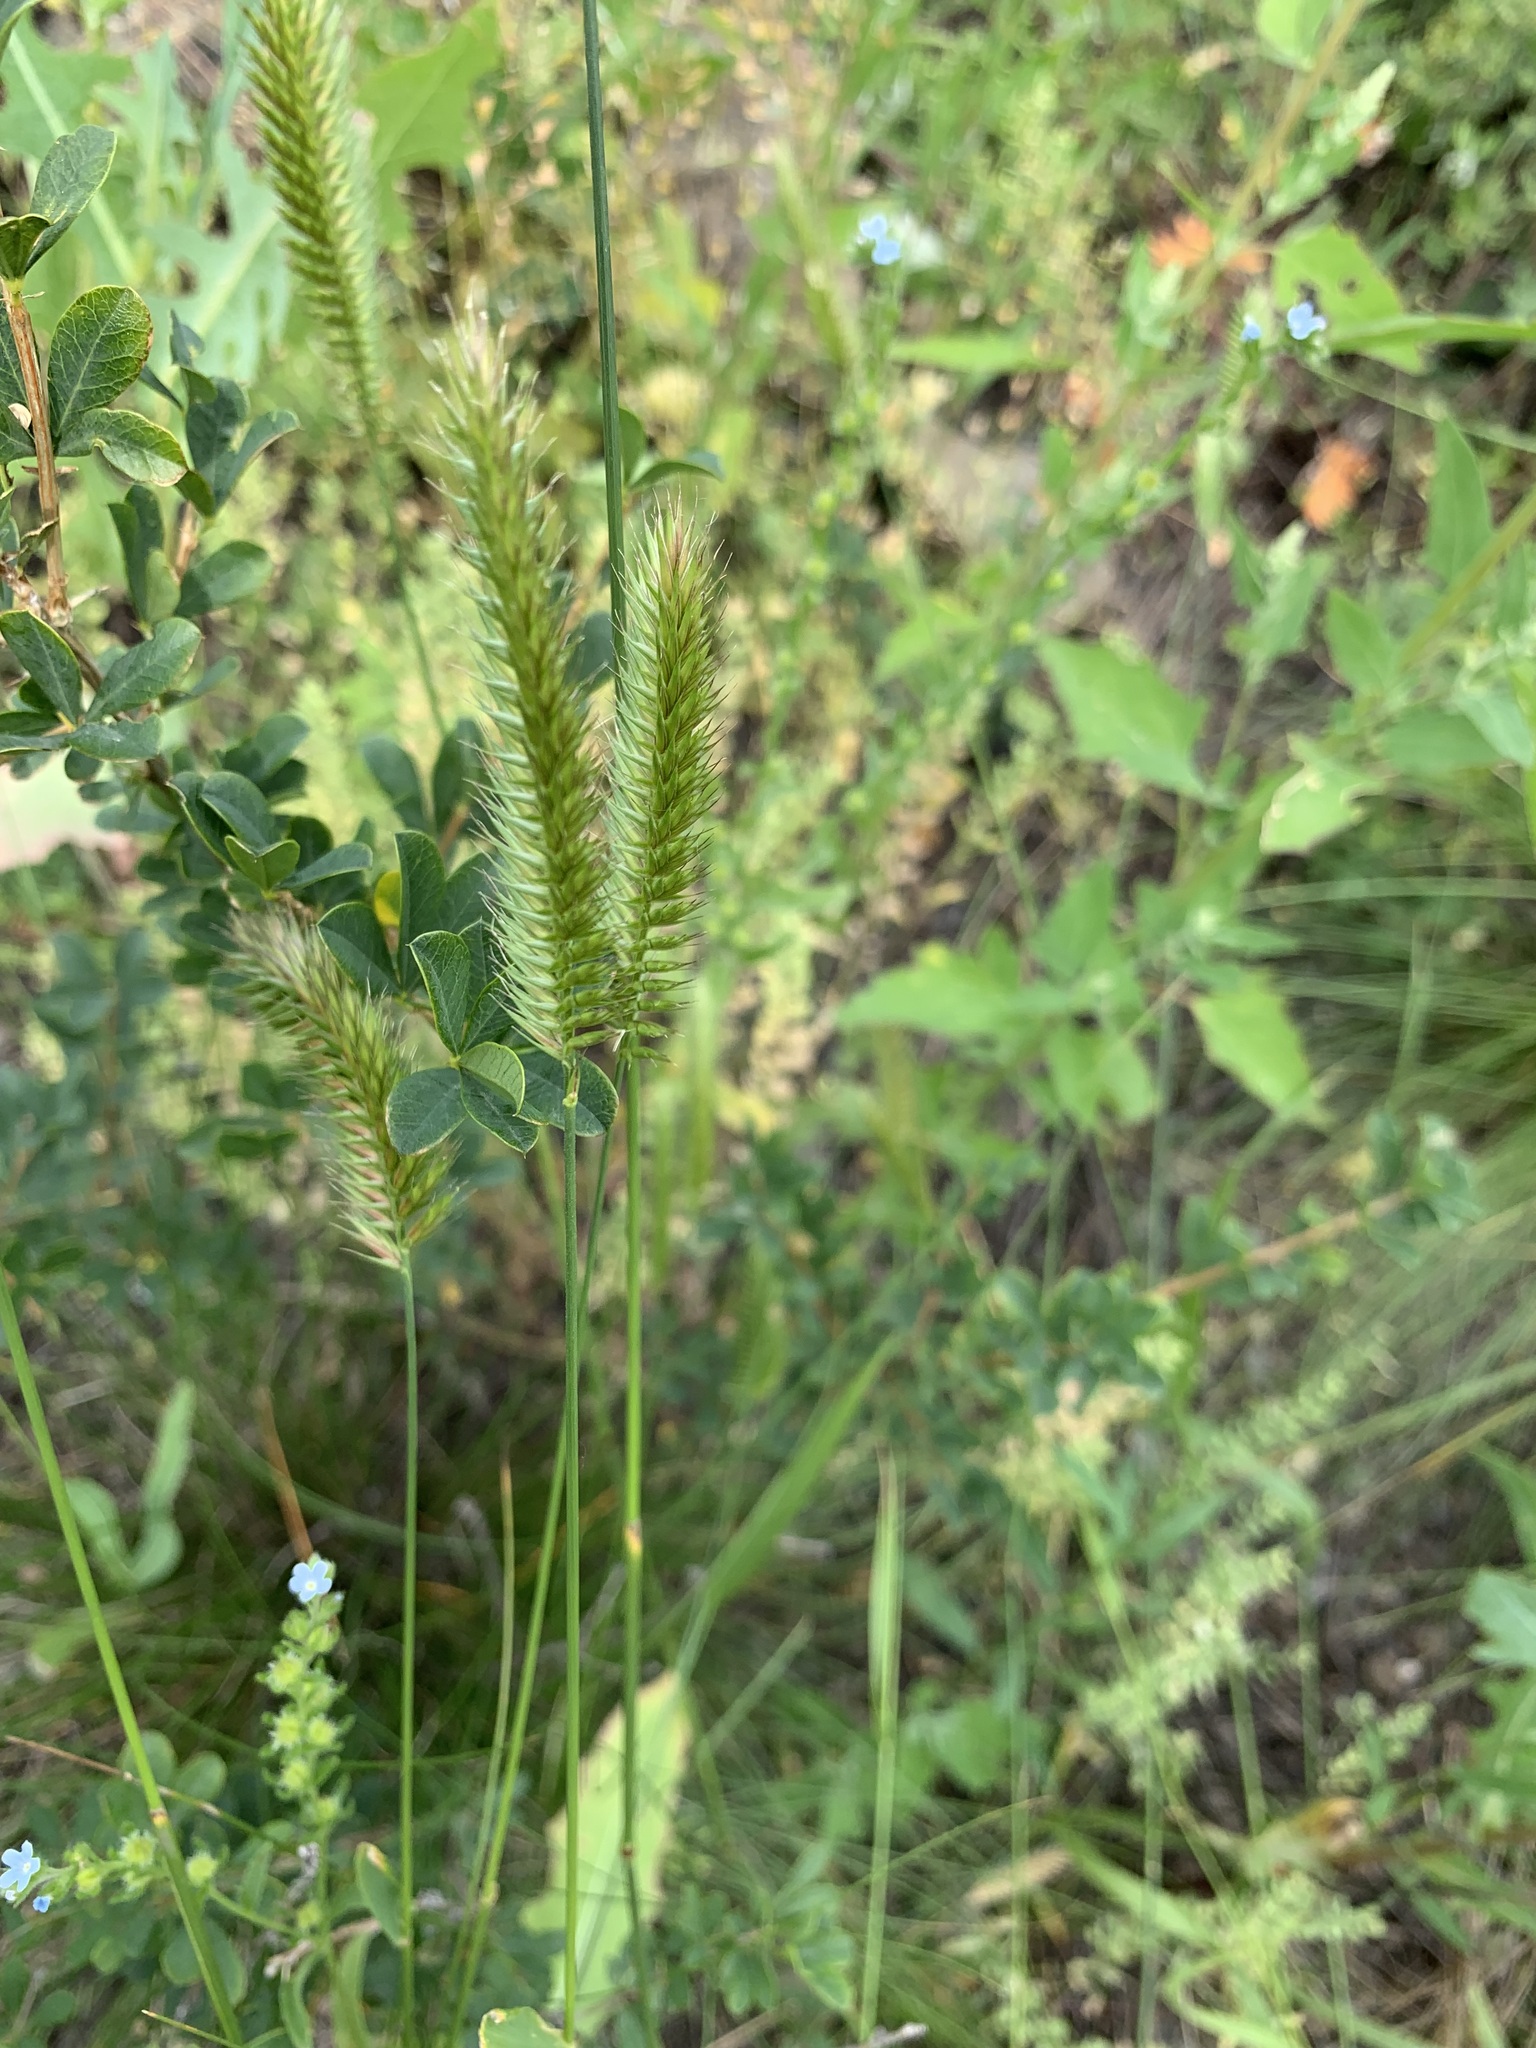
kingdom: Plantae
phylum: Tracheophyta
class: Liliopsida
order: Poales
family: Poaceae
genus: Agropyron
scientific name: Agropyron cristatum
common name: Crested wheatgrass
